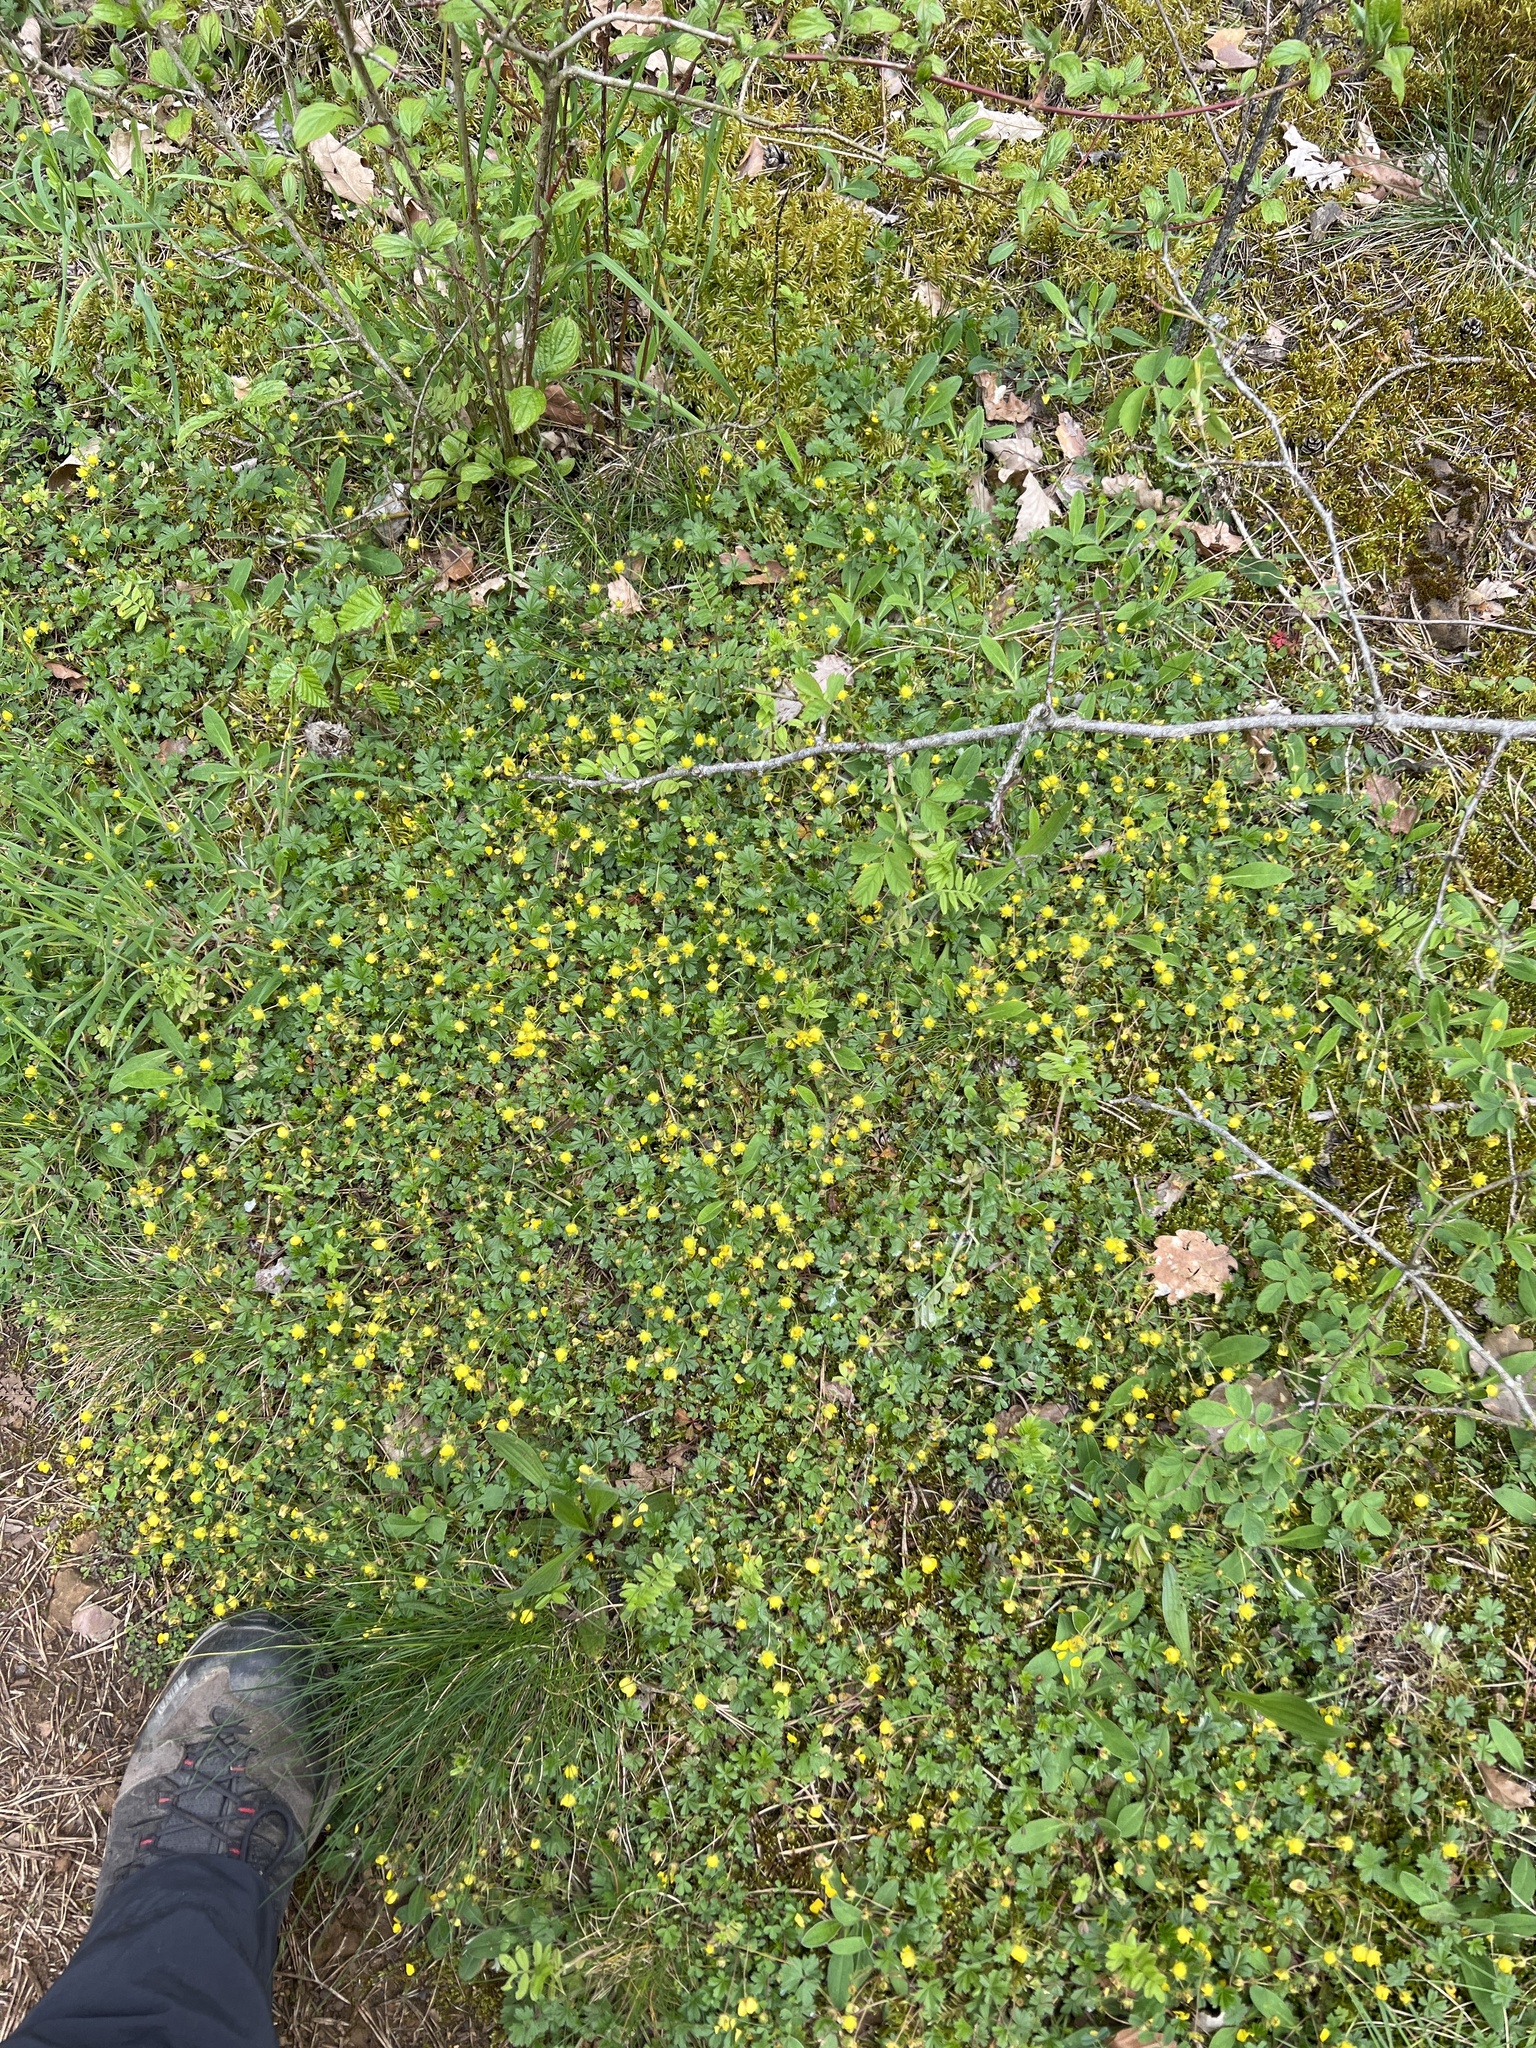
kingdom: Plantae
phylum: Tracheophyta
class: Magnoliopsida
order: Rosales
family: Rosaceae
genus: Potentilla
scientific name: Potentilla verna
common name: Spring cinquefoil
